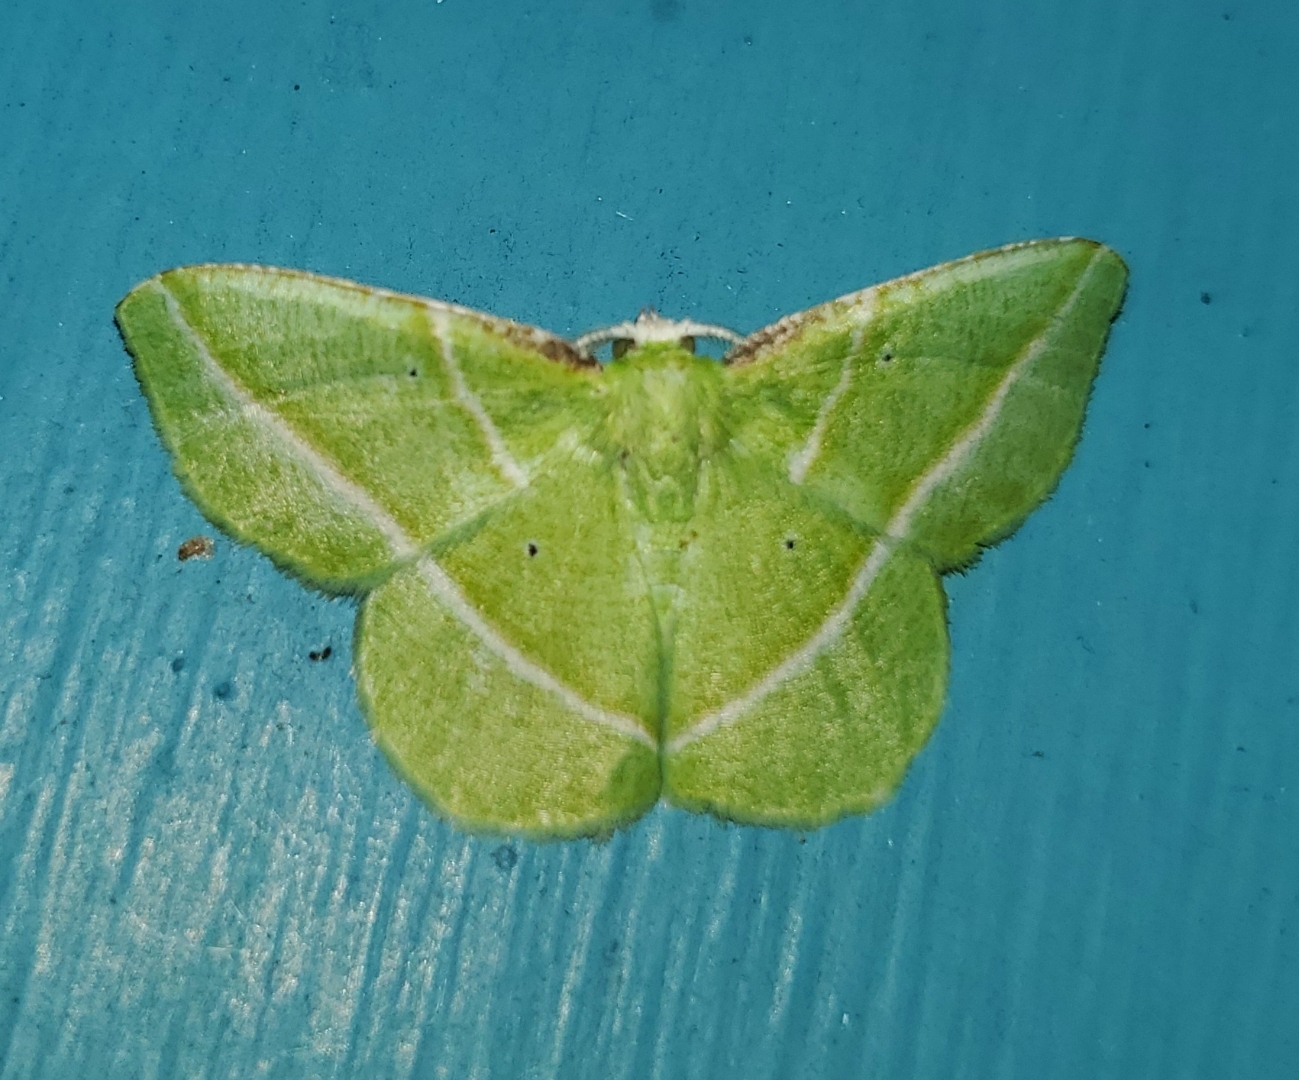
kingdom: Animalia
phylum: Arthropoda
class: Insecta
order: Lepidoptera
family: Geometridae
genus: Dichorda
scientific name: Dichorda iridaria
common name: Showy emerald
